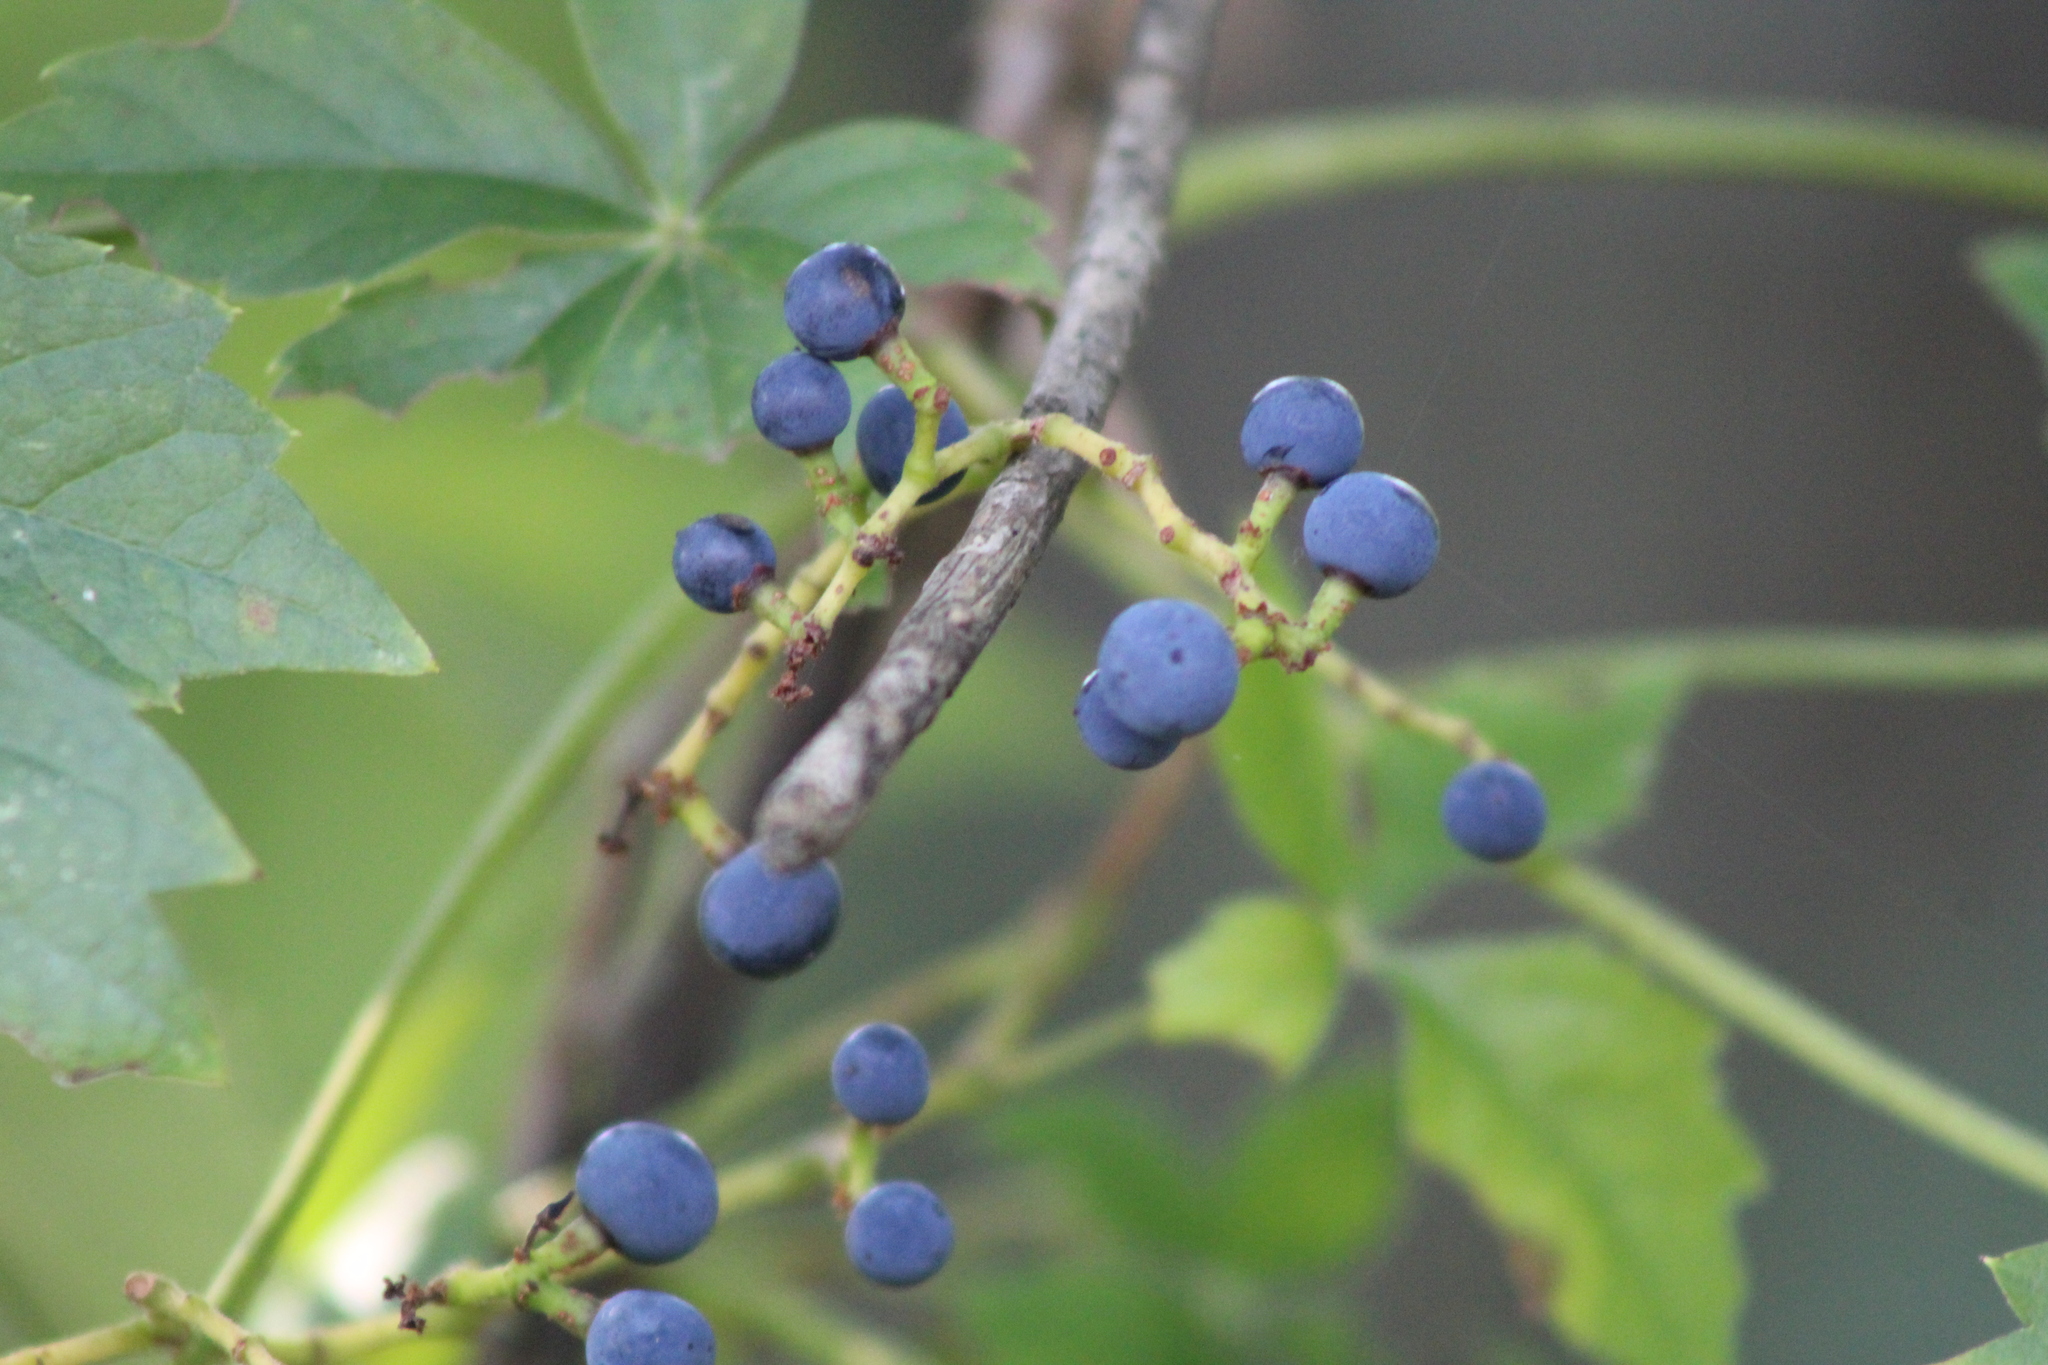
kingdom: Plantae
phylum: Tracheophyta
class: Magnoliopsida
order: Vitales
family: Vitaceae
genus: Parthenocissus
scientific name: Parthenocissus quinquefolia
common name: Virginia-creeper
